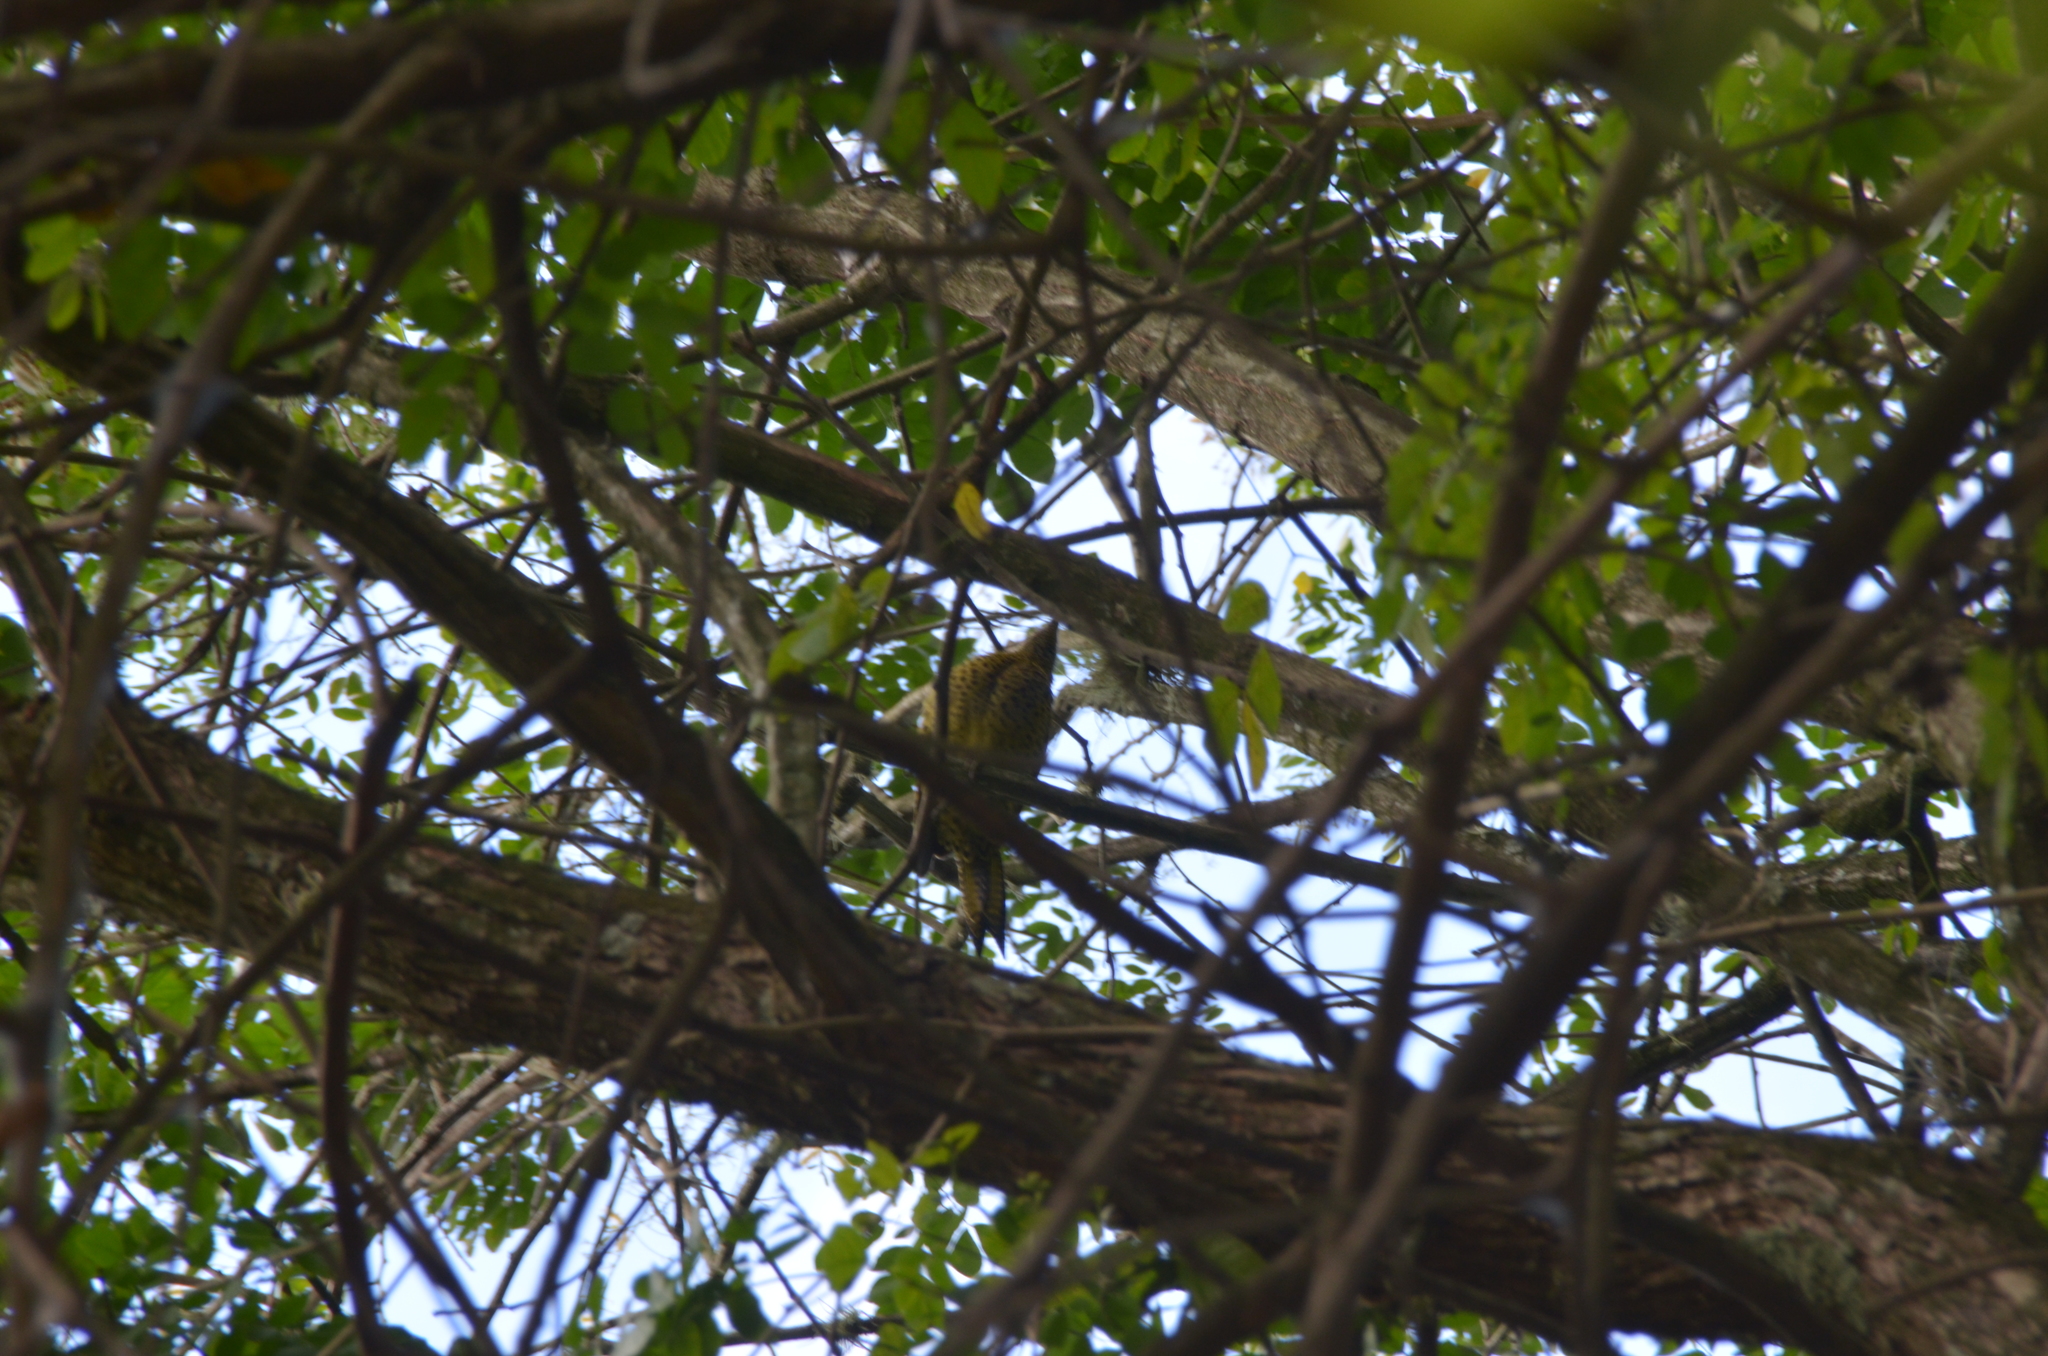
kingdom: Animalia
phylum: Chordata
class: Aves
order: Piciformes
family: Picidae
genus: Colaptes
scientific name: Colaptes melanochloros
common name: Green-barred woodpecker
